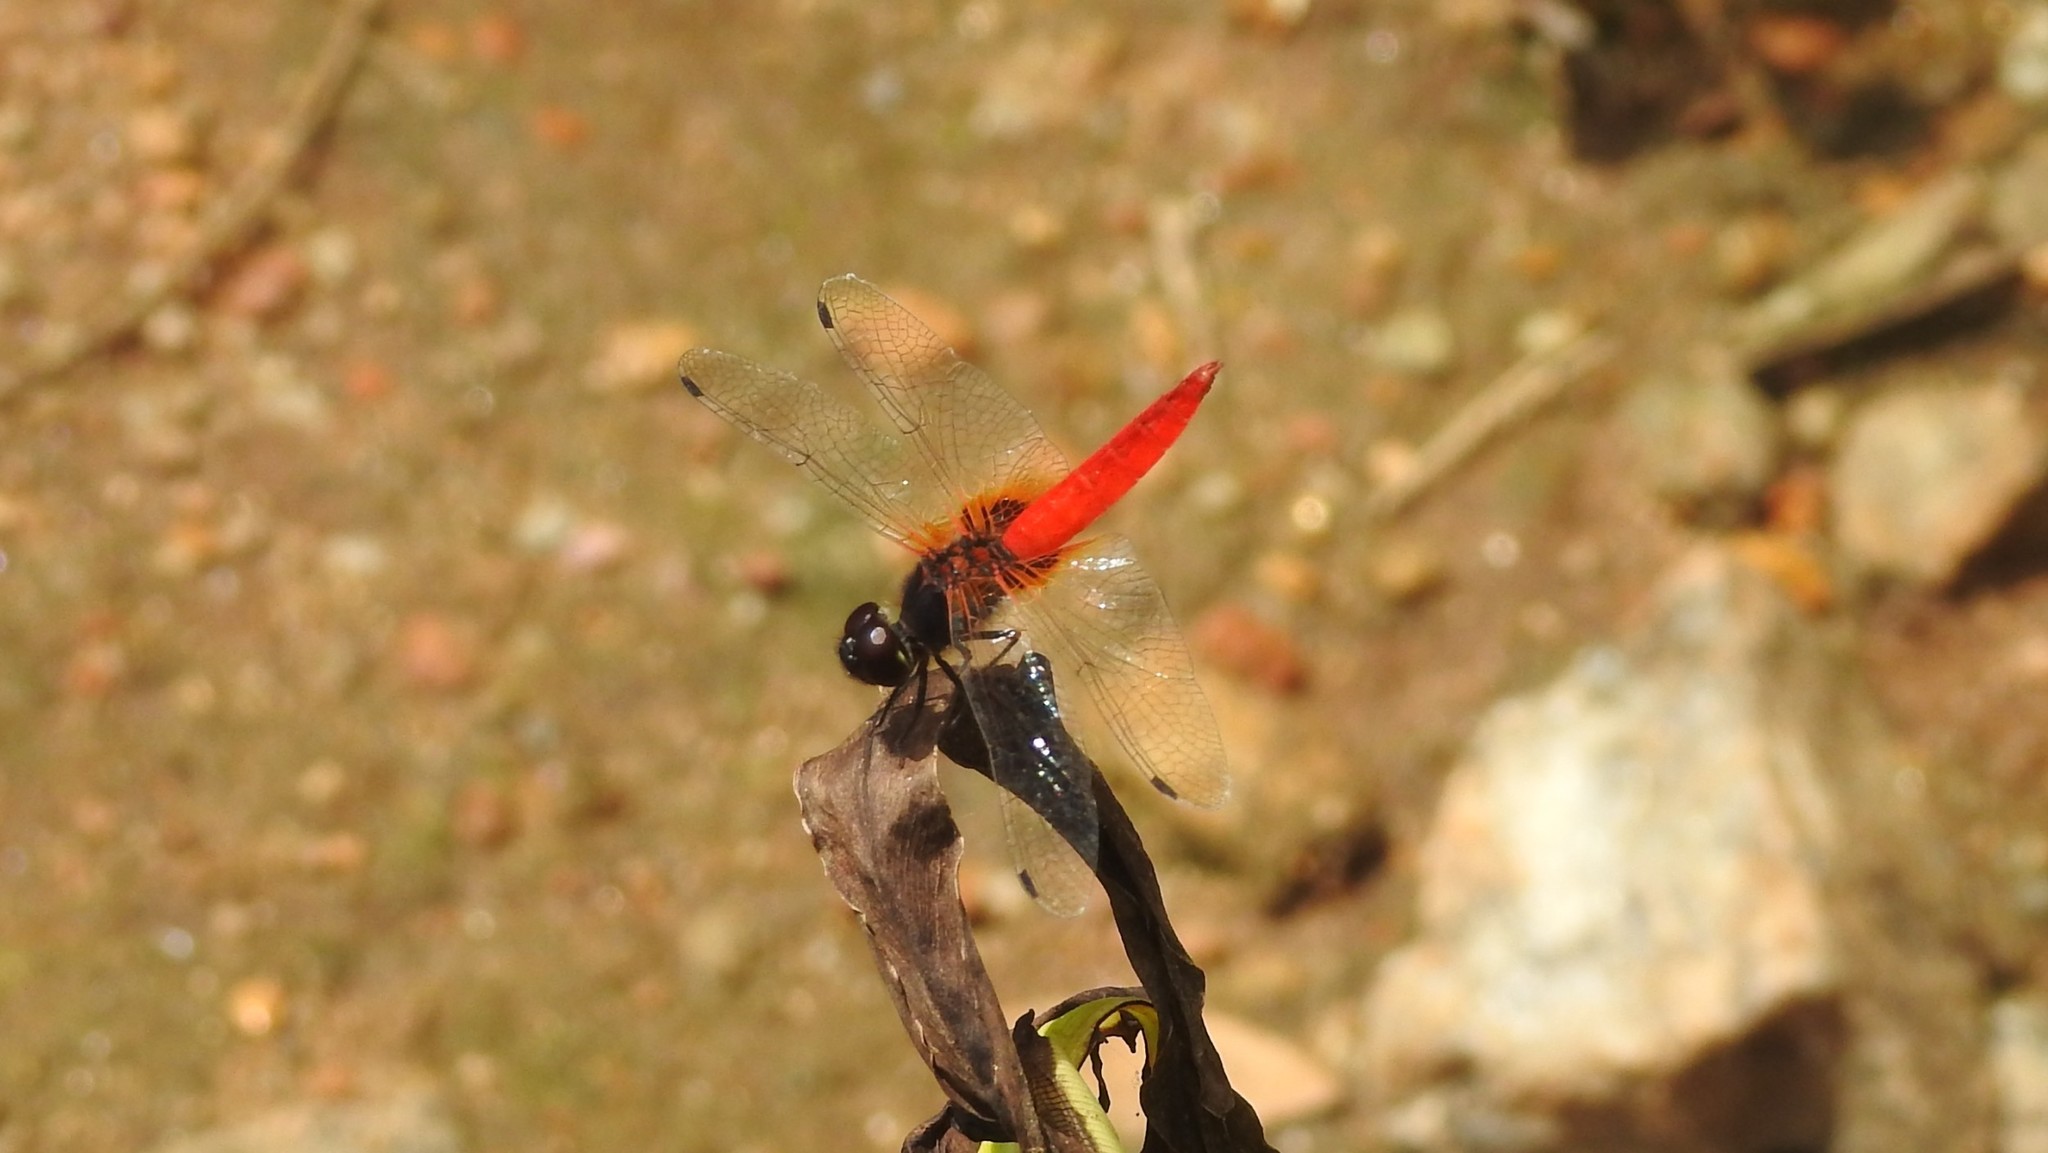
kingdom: Animalia
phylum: Arthropoda
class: Insecta
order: Odonata
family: Libellulidae
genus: Aethriamanta
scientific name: Aethriamanta brevipennis
